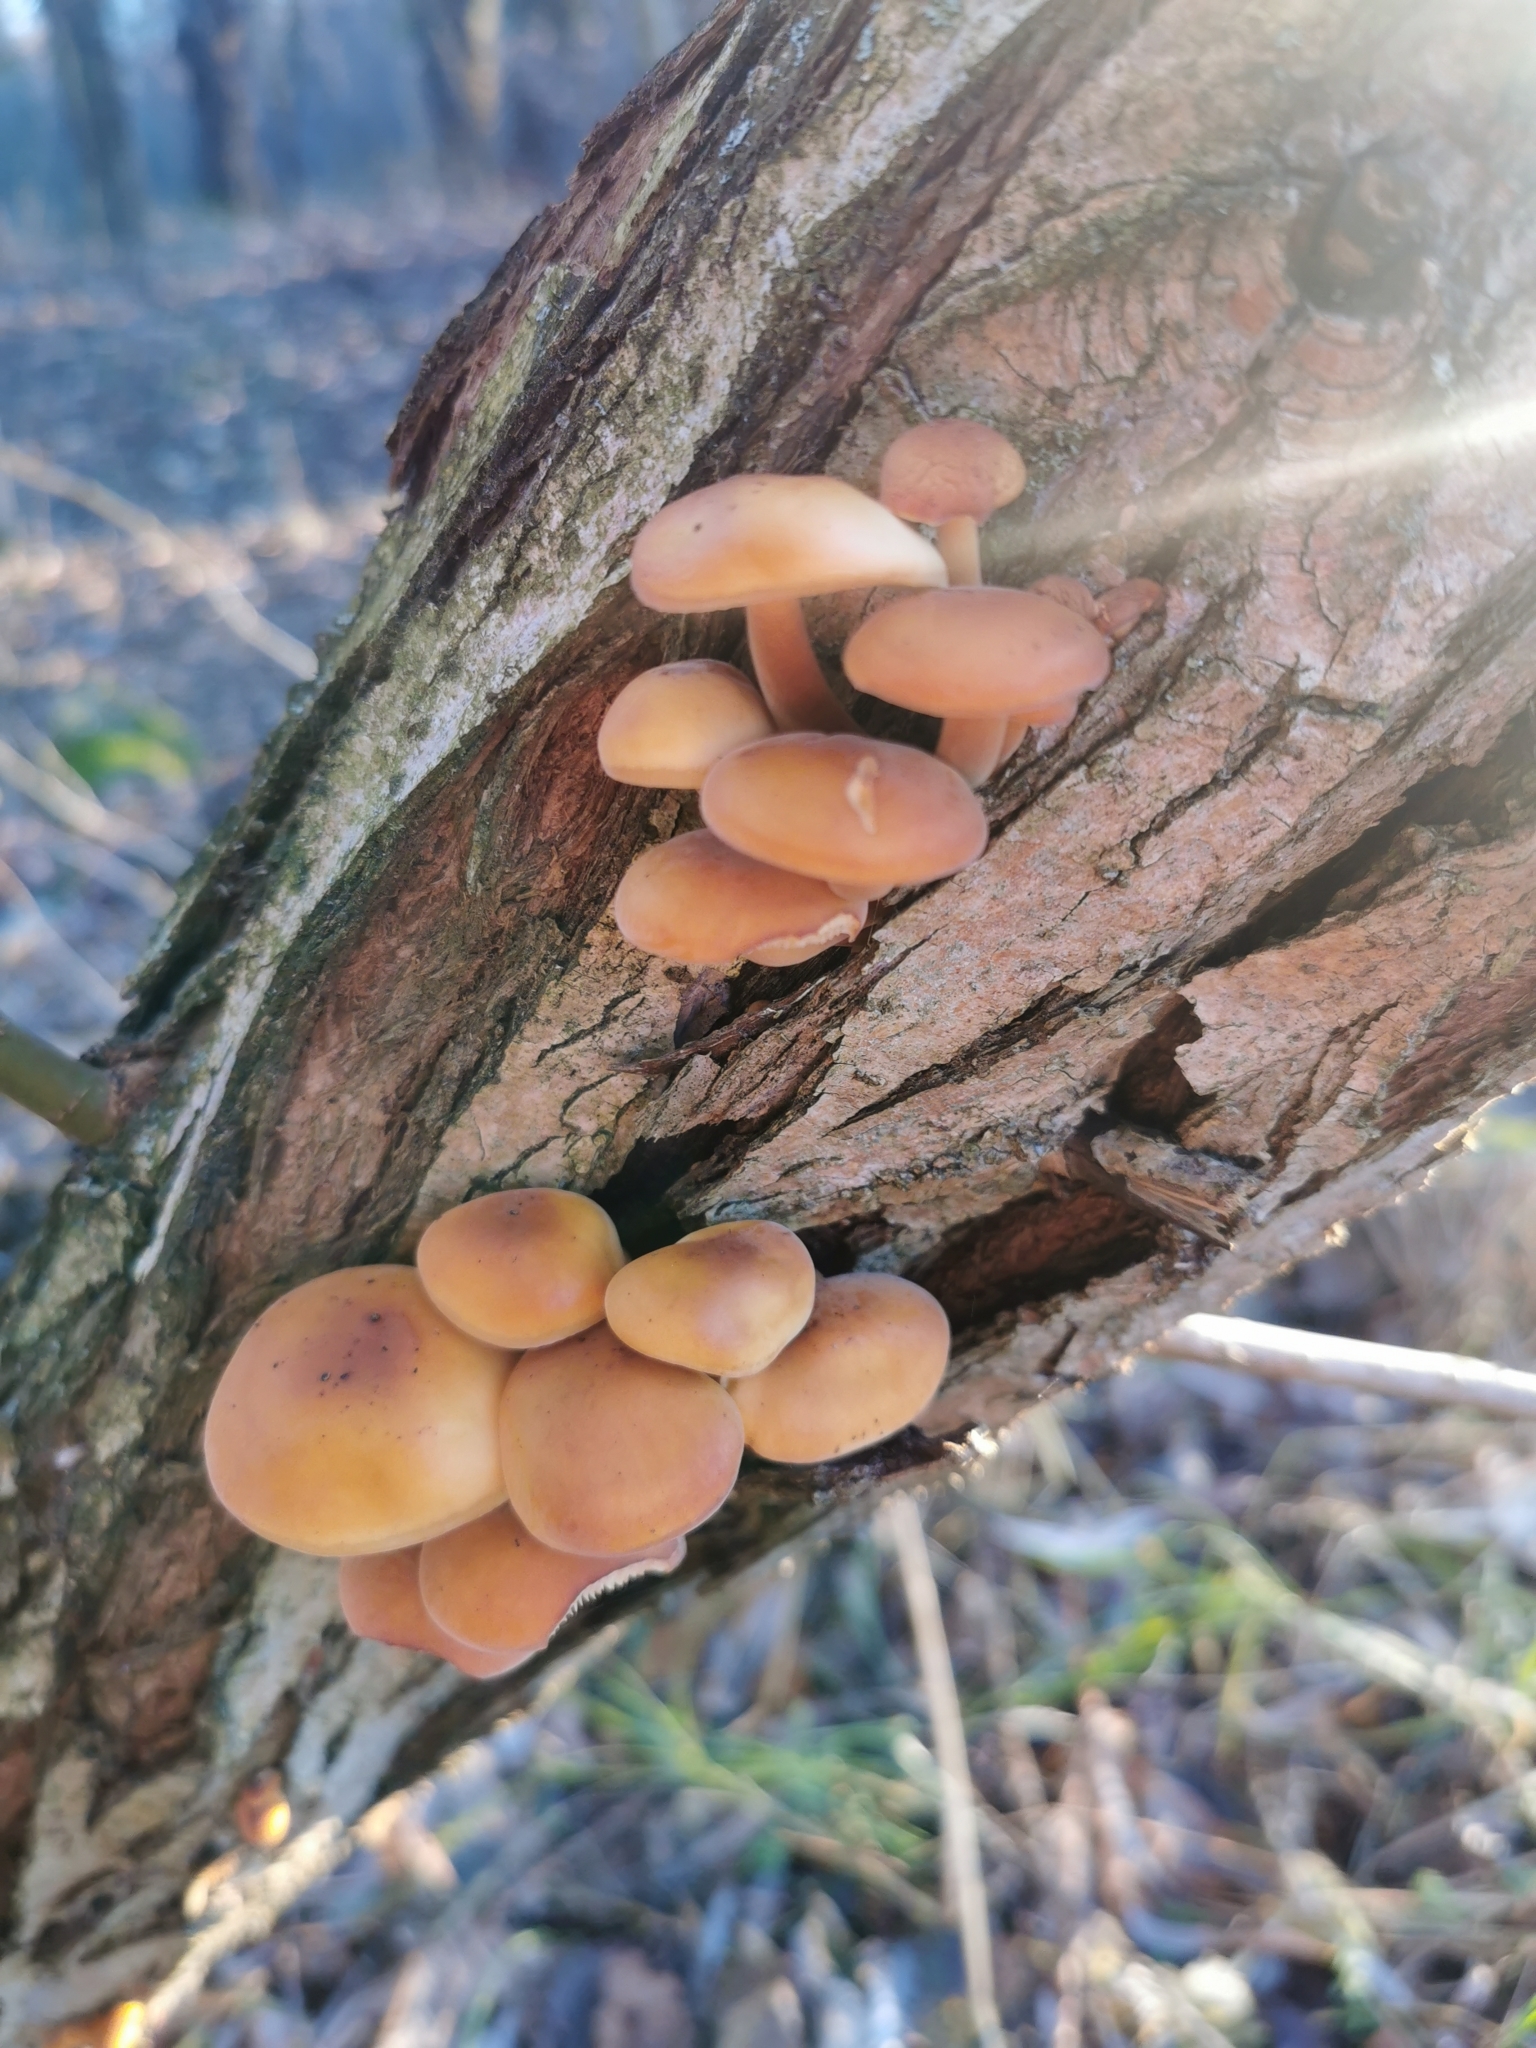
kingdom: Fungi
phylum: Basidiomycota
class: Agaricomycetes
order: Agaricales
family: Physalacriaceae
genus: Flammulina
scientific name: Flammulina
